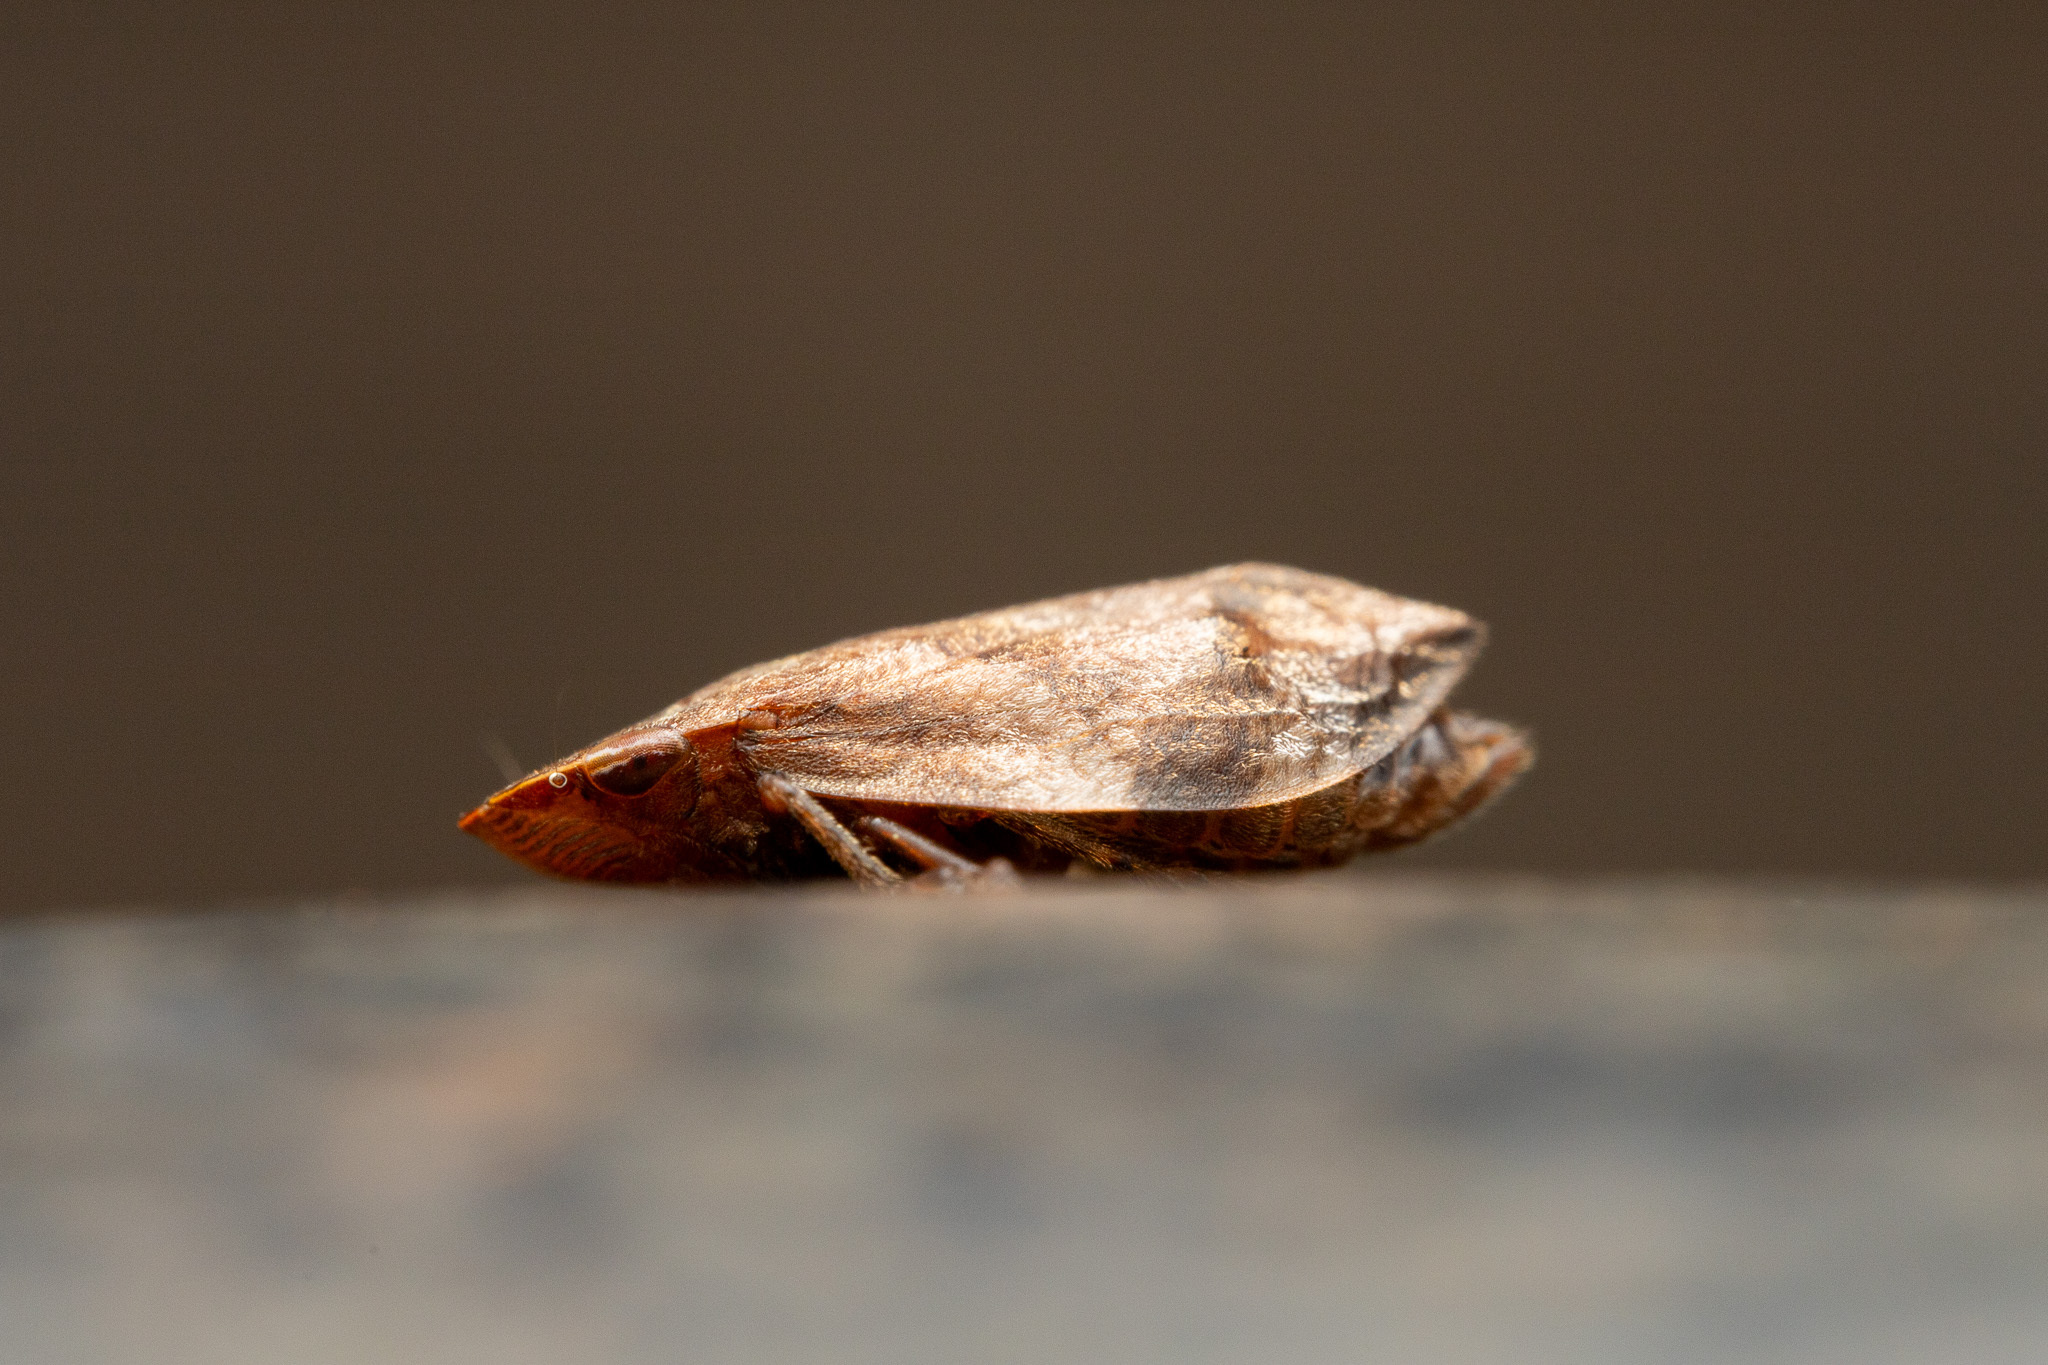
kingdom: Animalia
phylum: Arthropoda
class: Insecta
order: Hemiptera
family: Aphrophoridae
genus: Lepyronia
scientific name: Lepyronia quadrangularis
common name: Diamond-backed spittlebug
